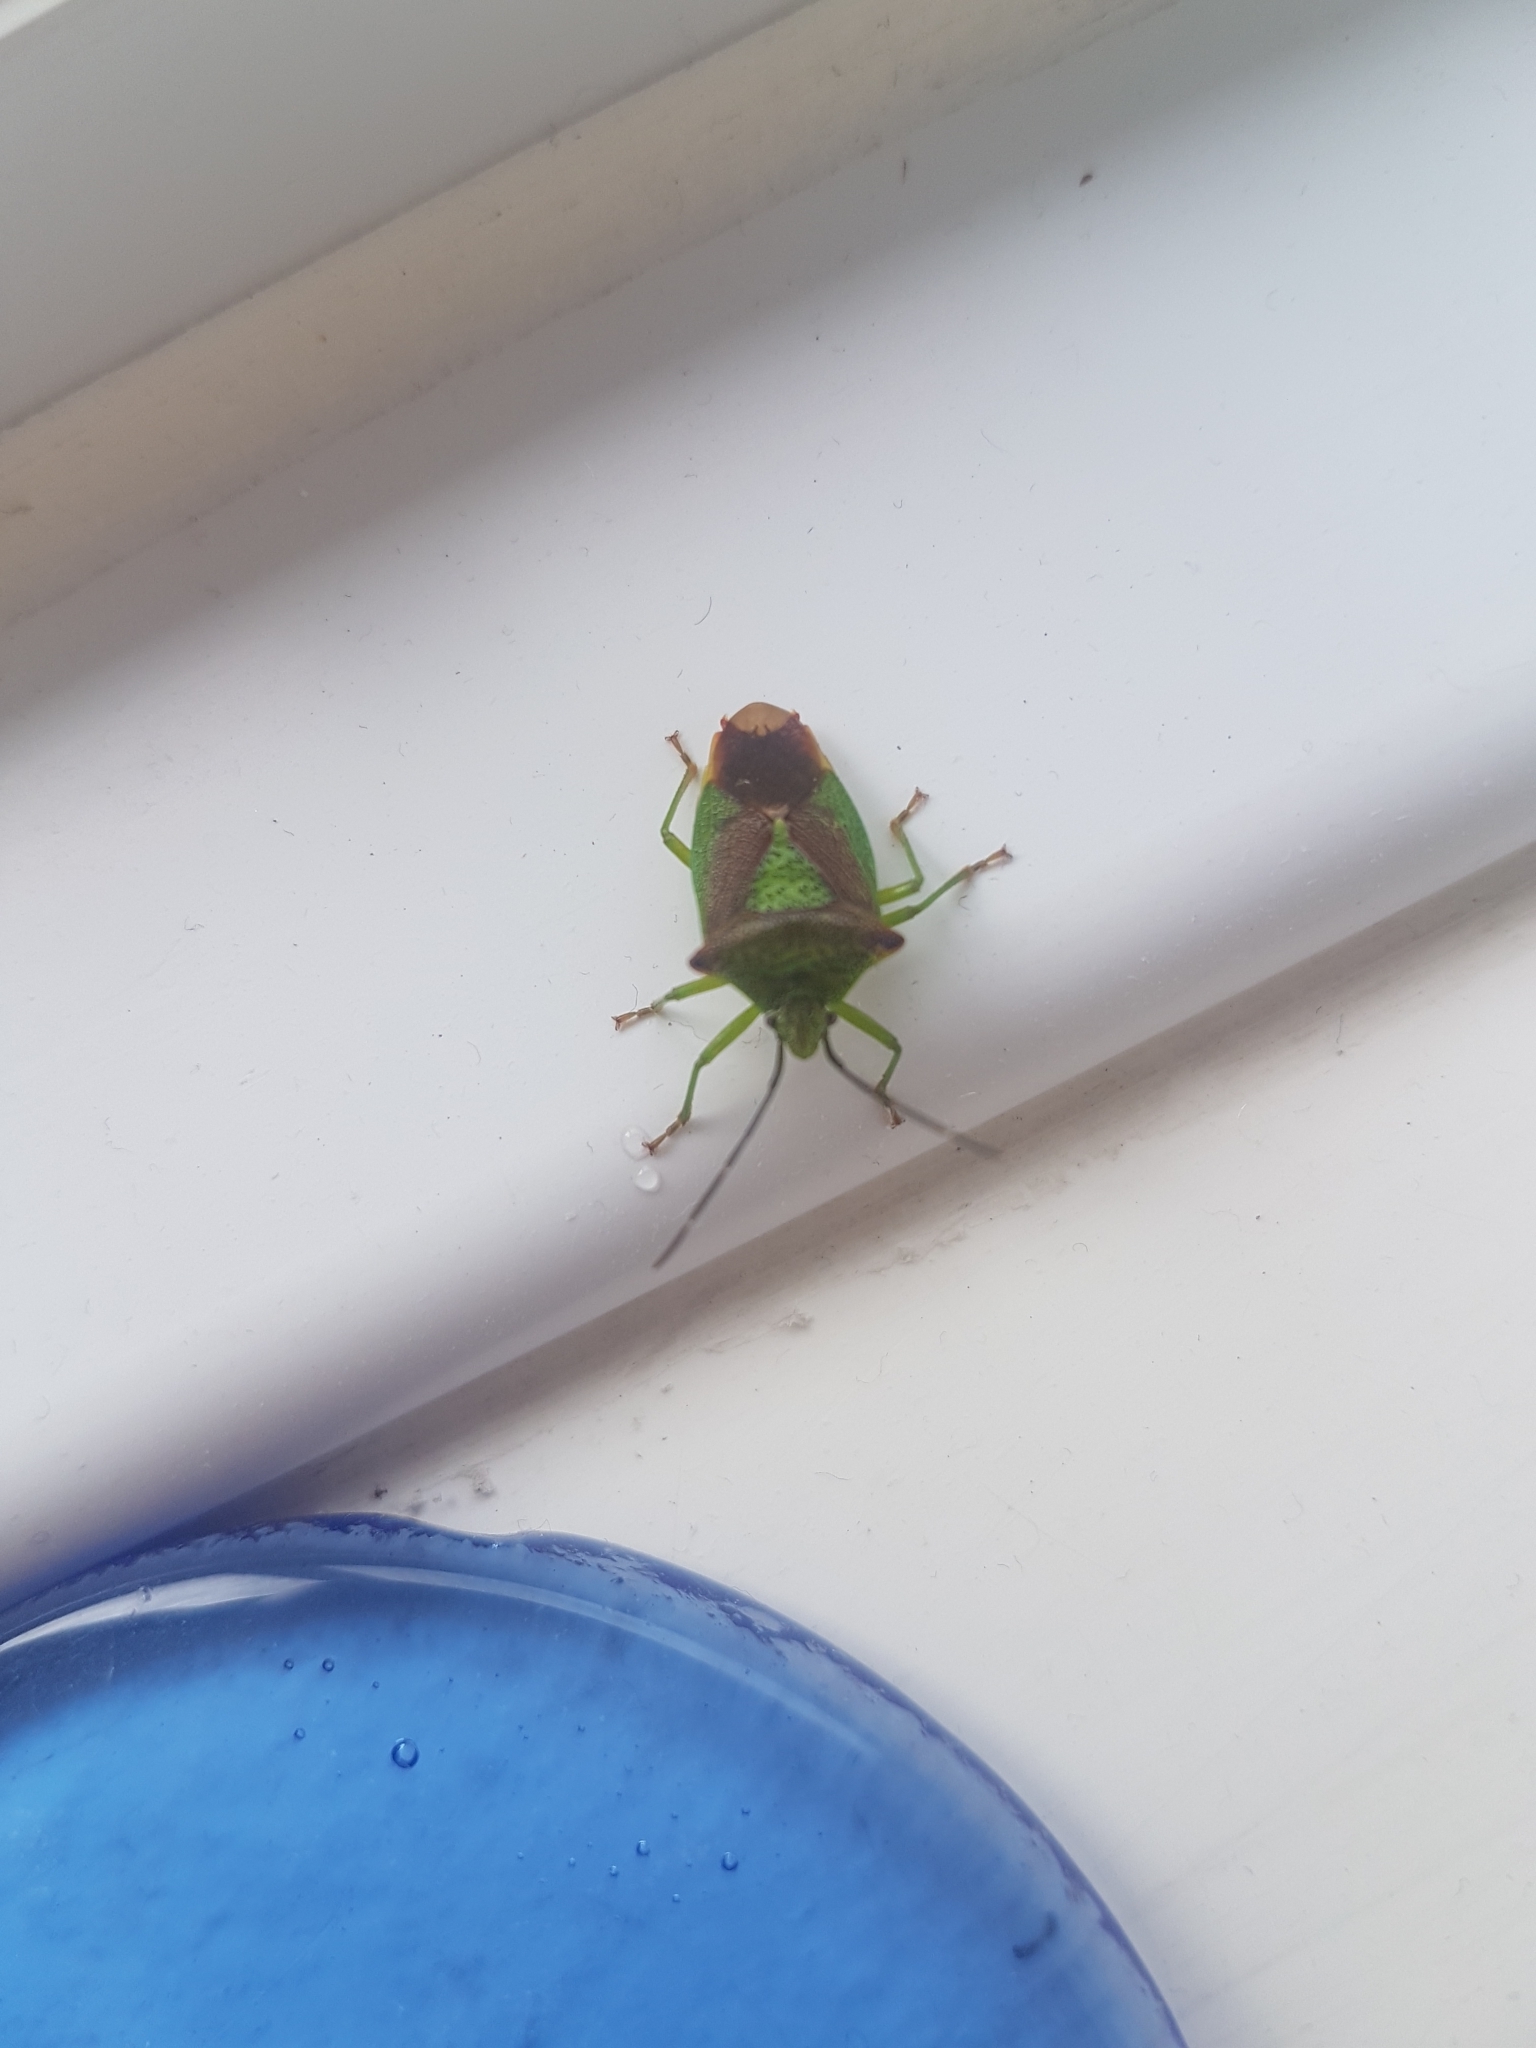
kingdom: Animalia
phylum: Arthropoda
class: Insecta
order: Hemiptera
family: Acanthosomatidae
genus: Acanthosoma
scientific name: Acanthosoma haemorrhoidale
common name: Hawthorn shieldbug
